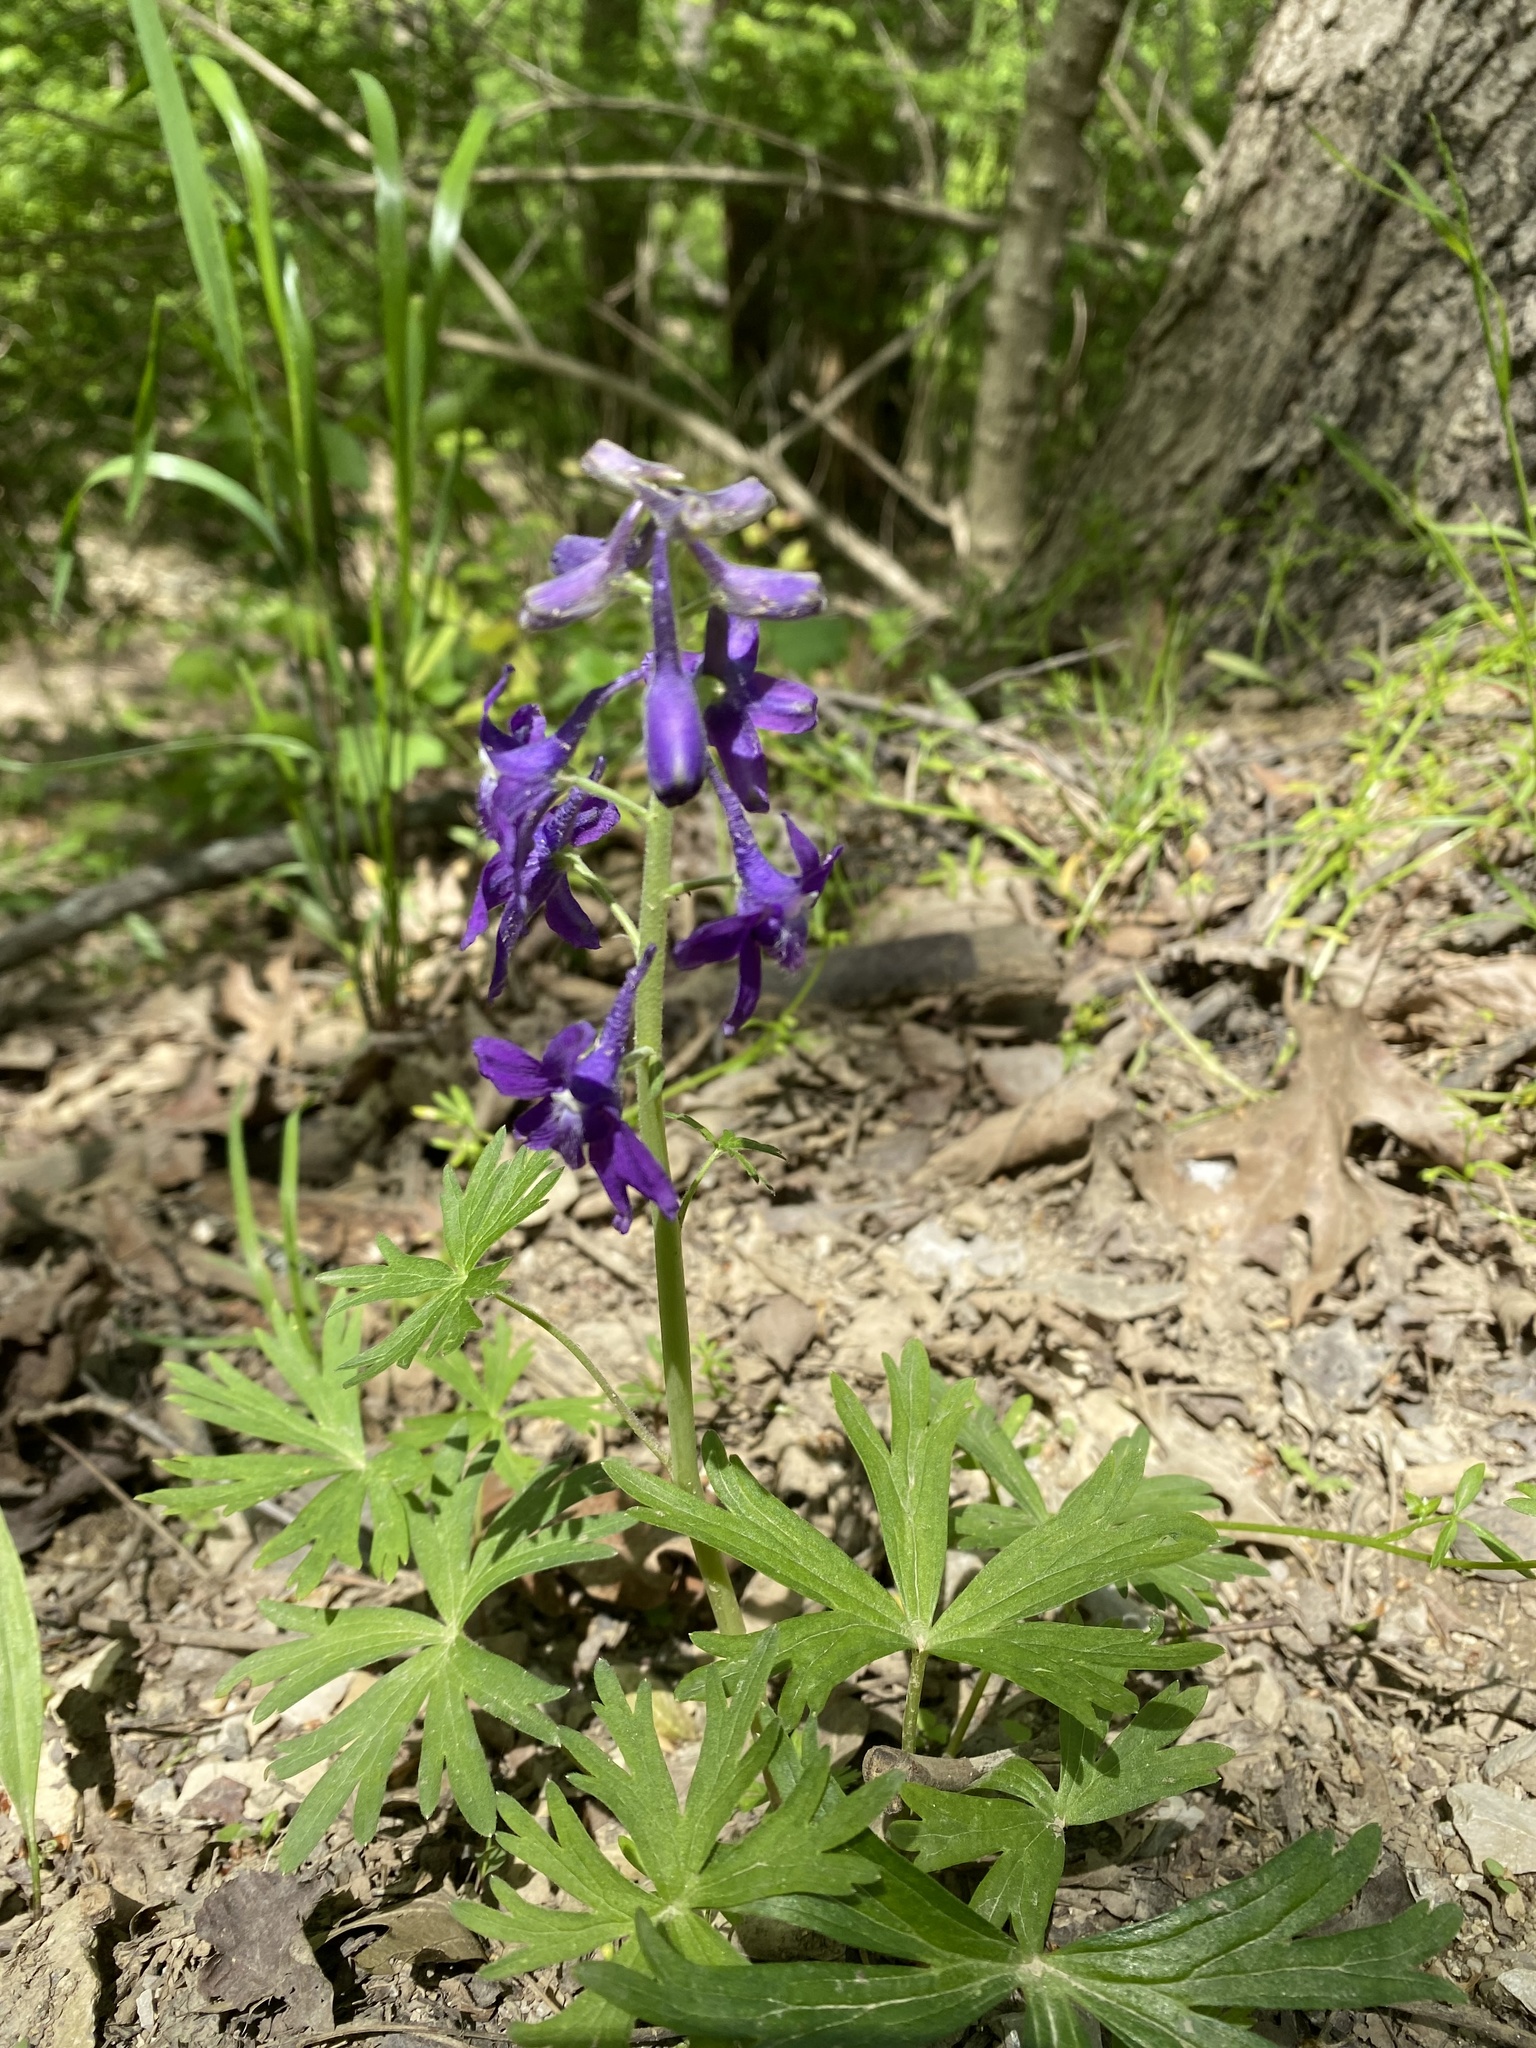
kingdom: Plantae
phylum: Tracheophyta
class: Magnoliopsida
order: Ranunculales
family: Ranunculaceae
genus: Delphinium
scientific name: Delphinium tricorne
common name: Dwarf larkspur
